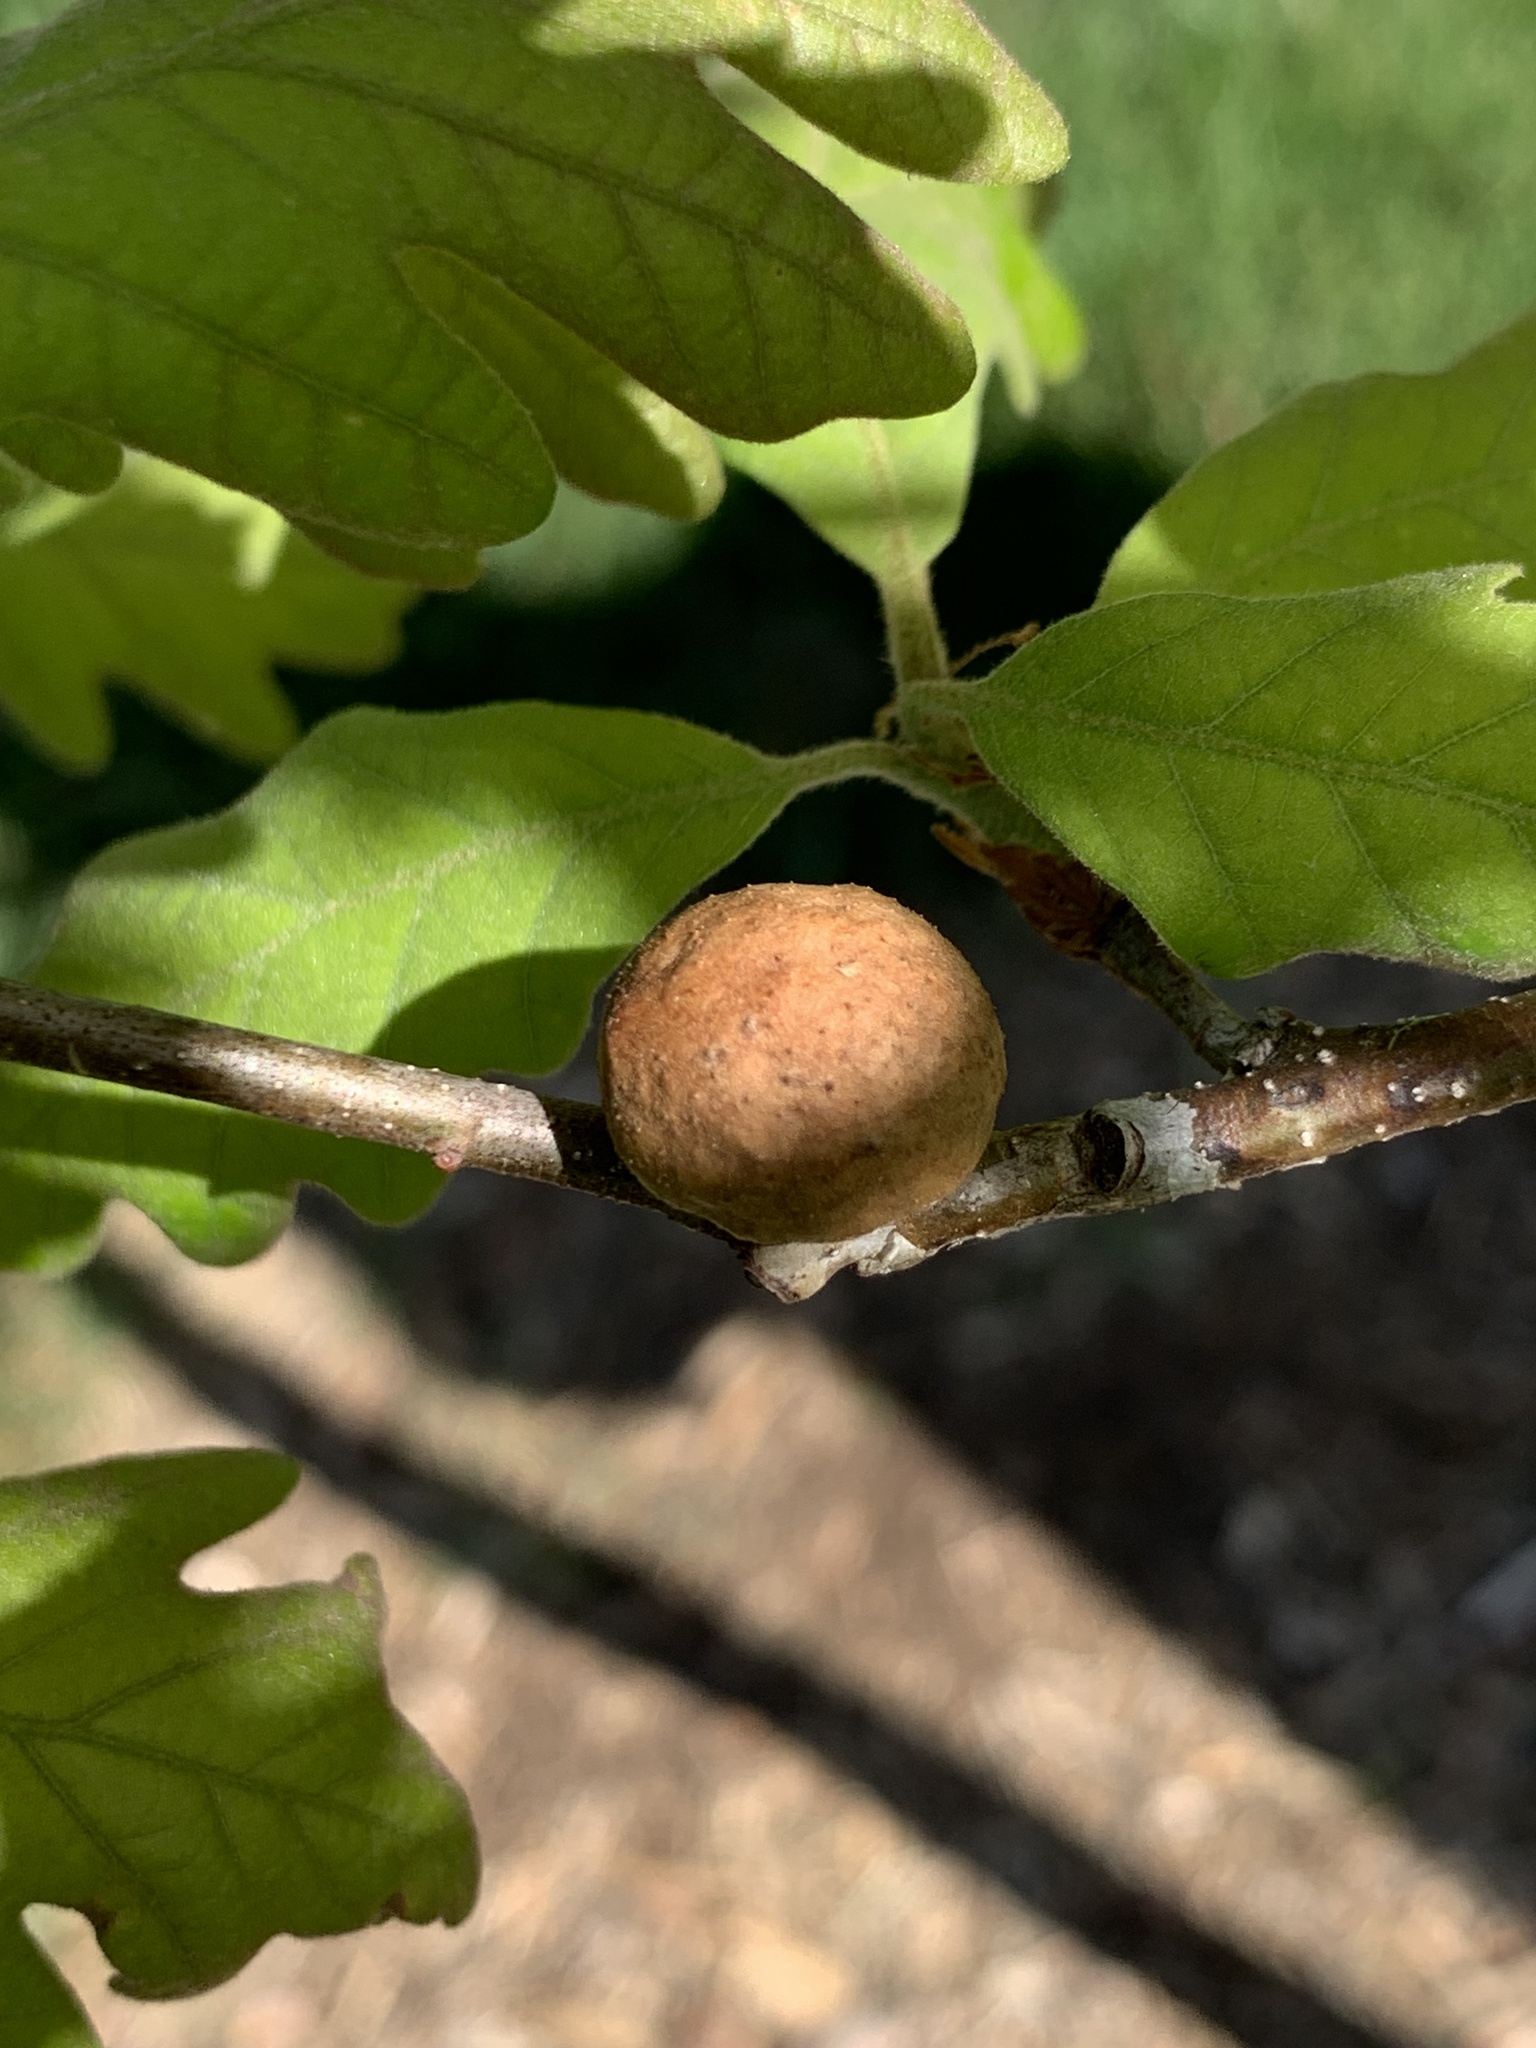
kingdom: Animalia
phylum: Arthropoda
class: Insecta
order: Hymenoptera
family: Cynipidae
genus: Disholcaspis
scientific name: Disholcaspis quercusglobulus
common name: Round bullet gall wasp
